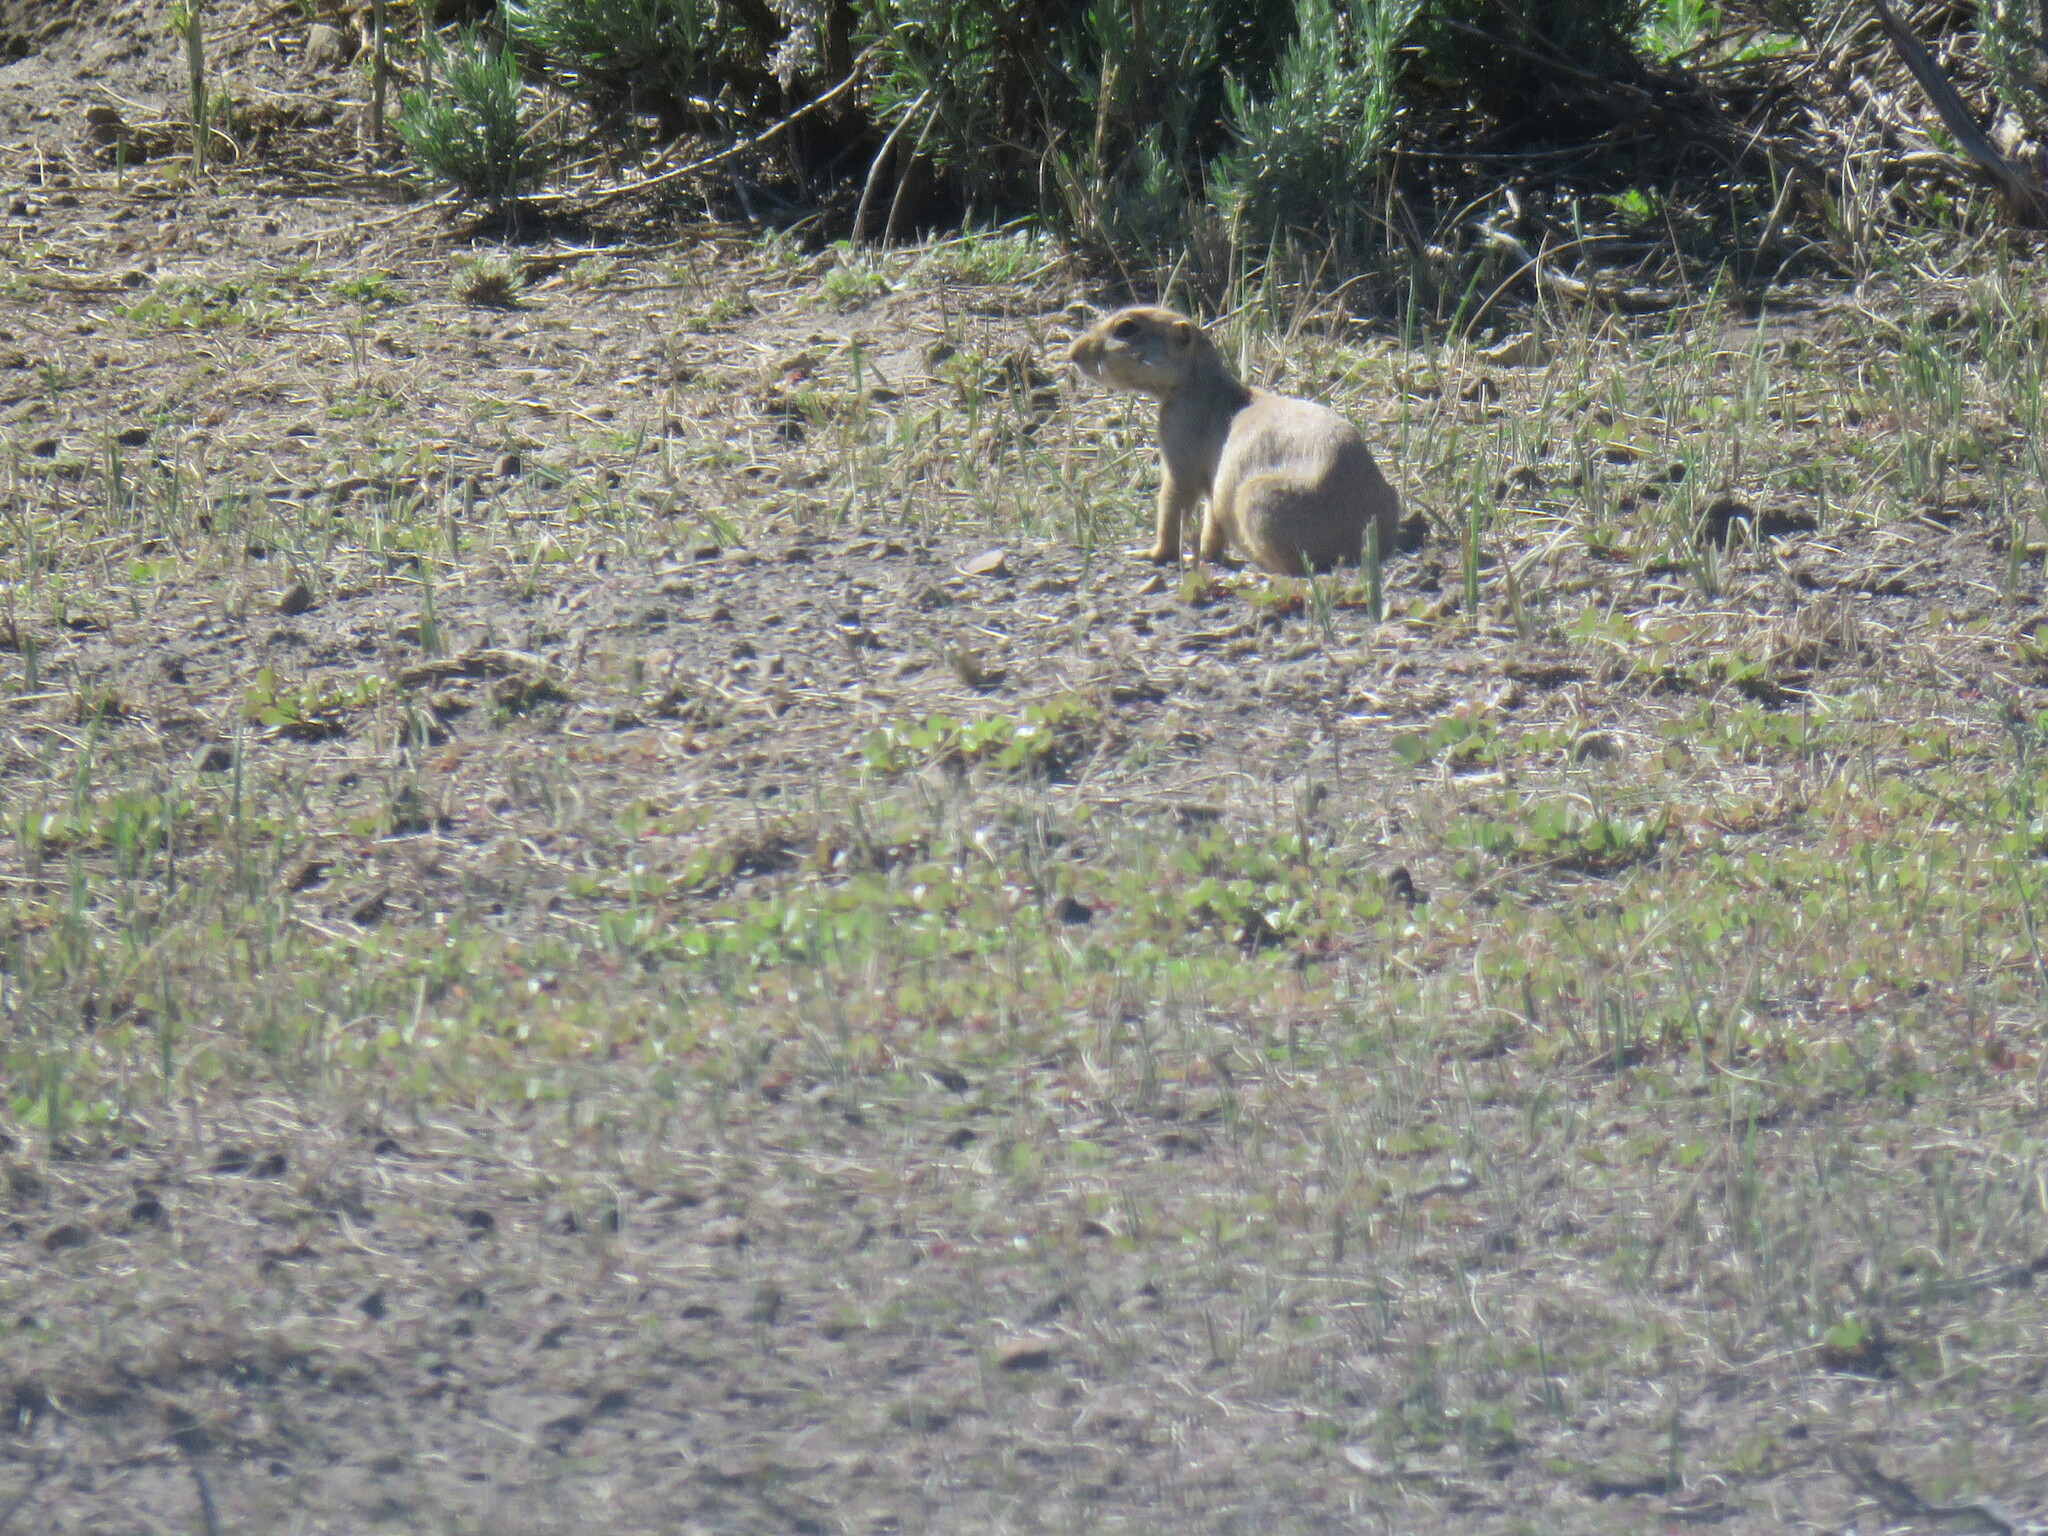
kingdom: Animalia
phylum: Chordata
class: Mammalia
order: Rodentia
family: Sciuridae
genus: Cynomys
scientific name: Cynomys gunnisoni
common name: Gunnison's prairie dog
